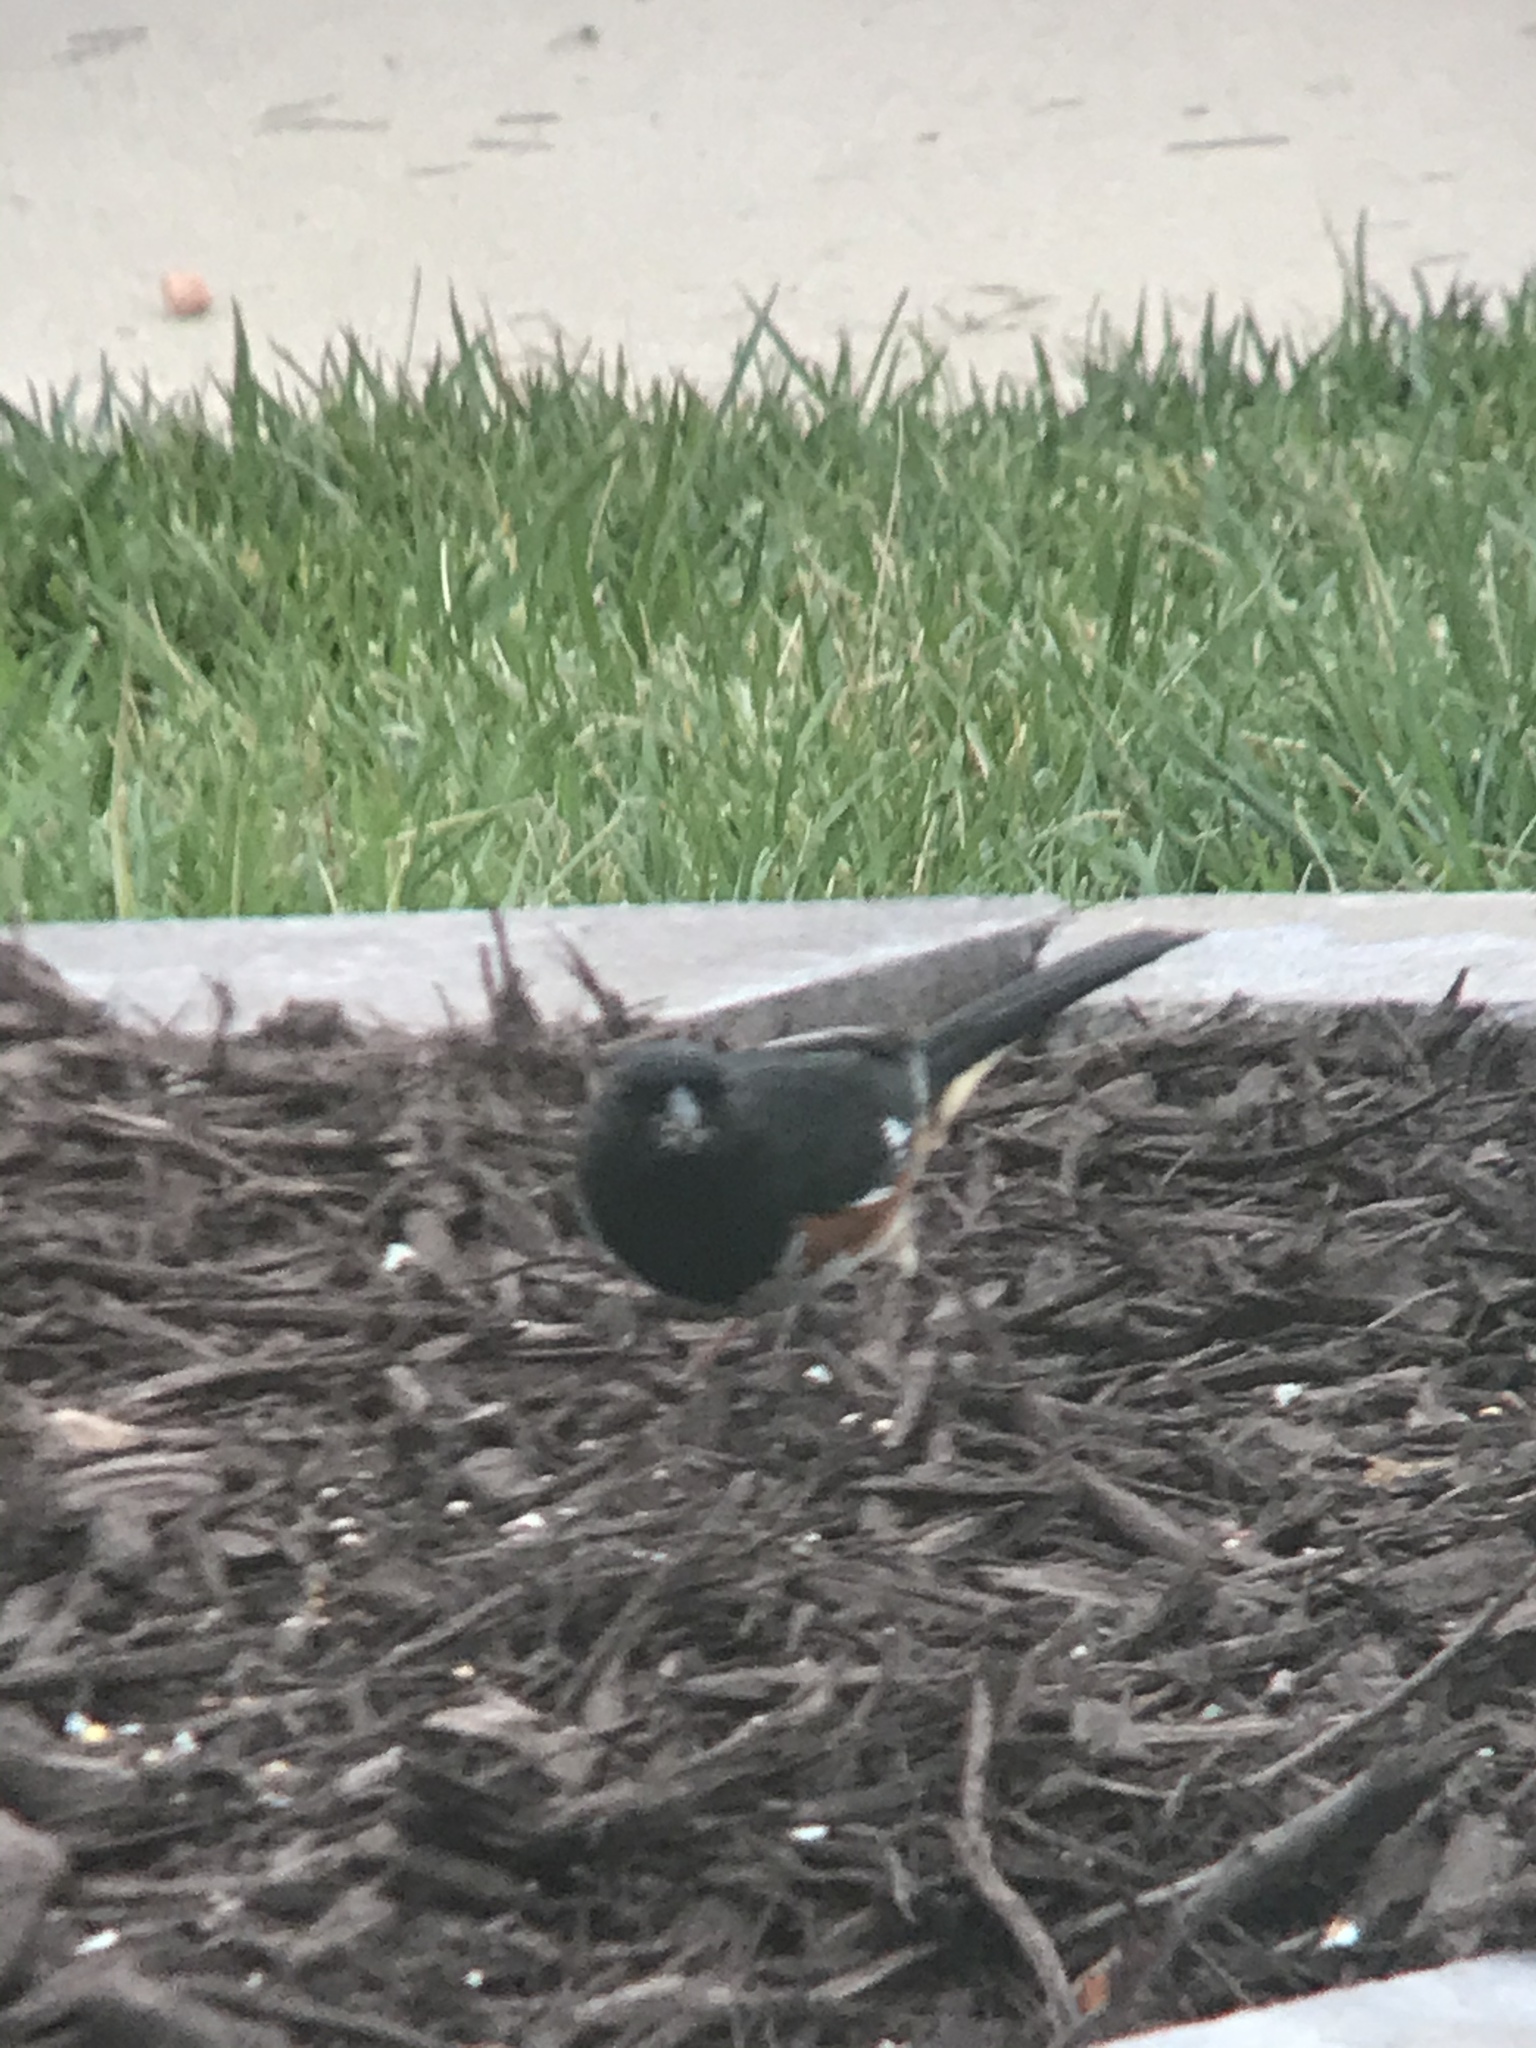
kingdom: Animalia
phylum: Chordata
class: Aves
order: Passeriformes
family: Passerellidae
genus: Pipilo
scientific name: Pipilo erythrophthalmus
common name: Eastern towhee
